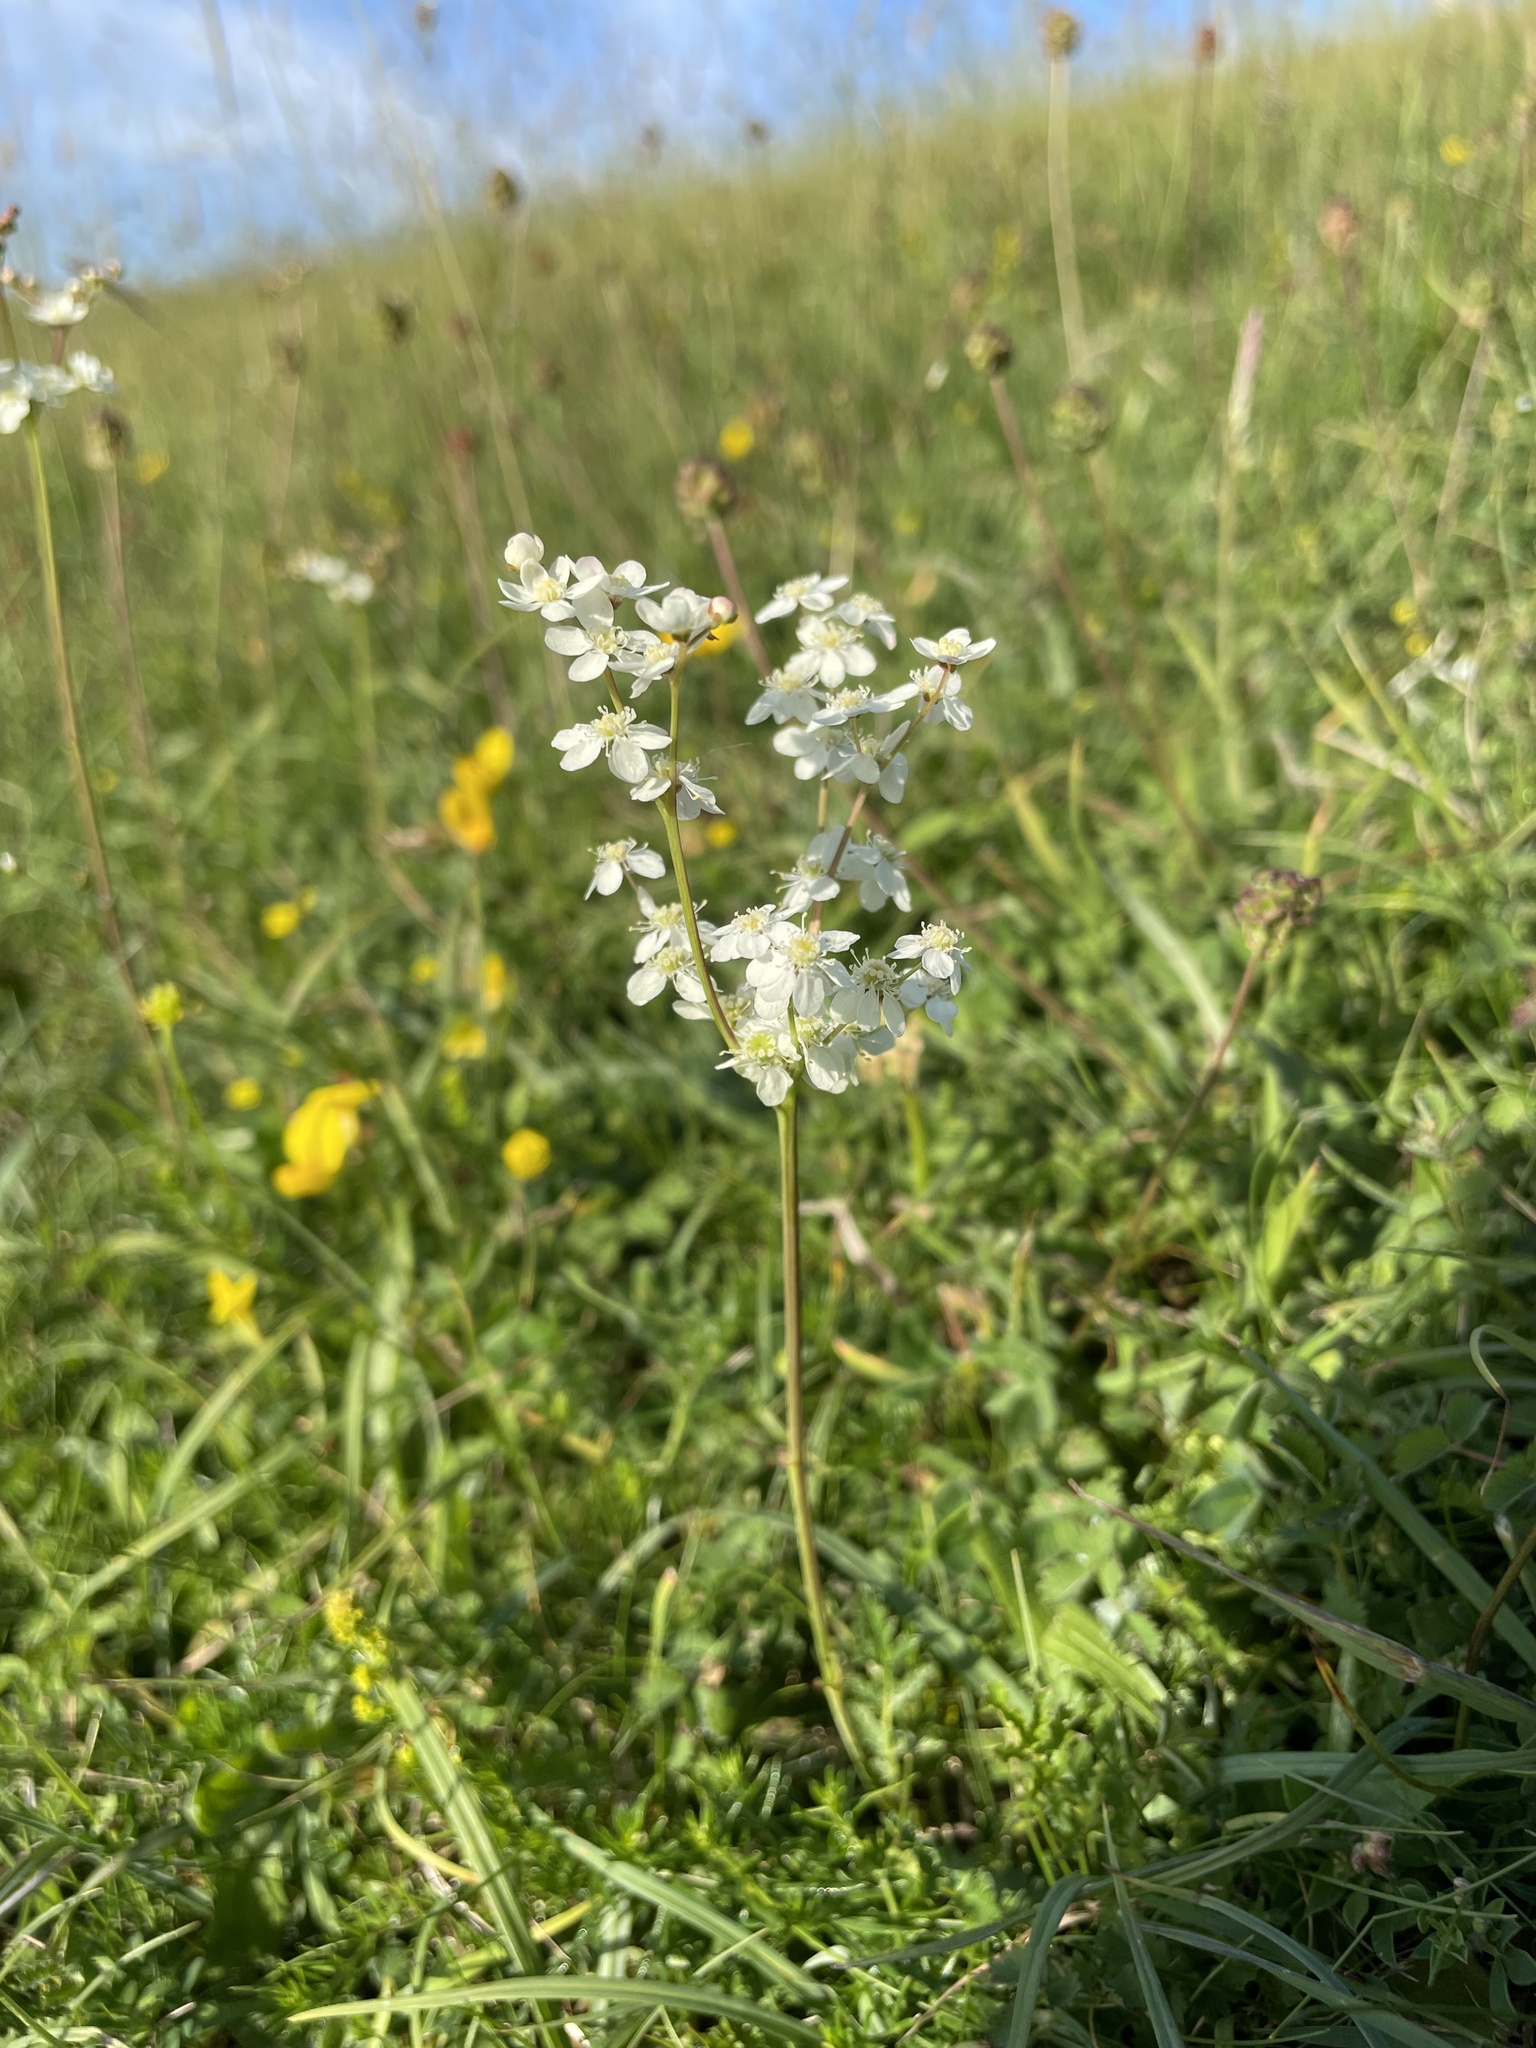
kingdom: Plantae
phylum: Tracheophyta
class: Magnoliopsida
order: Rosales
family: Rosaceae
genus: Filipendula
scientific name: Filipendula vulgaris
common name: Dropwort
